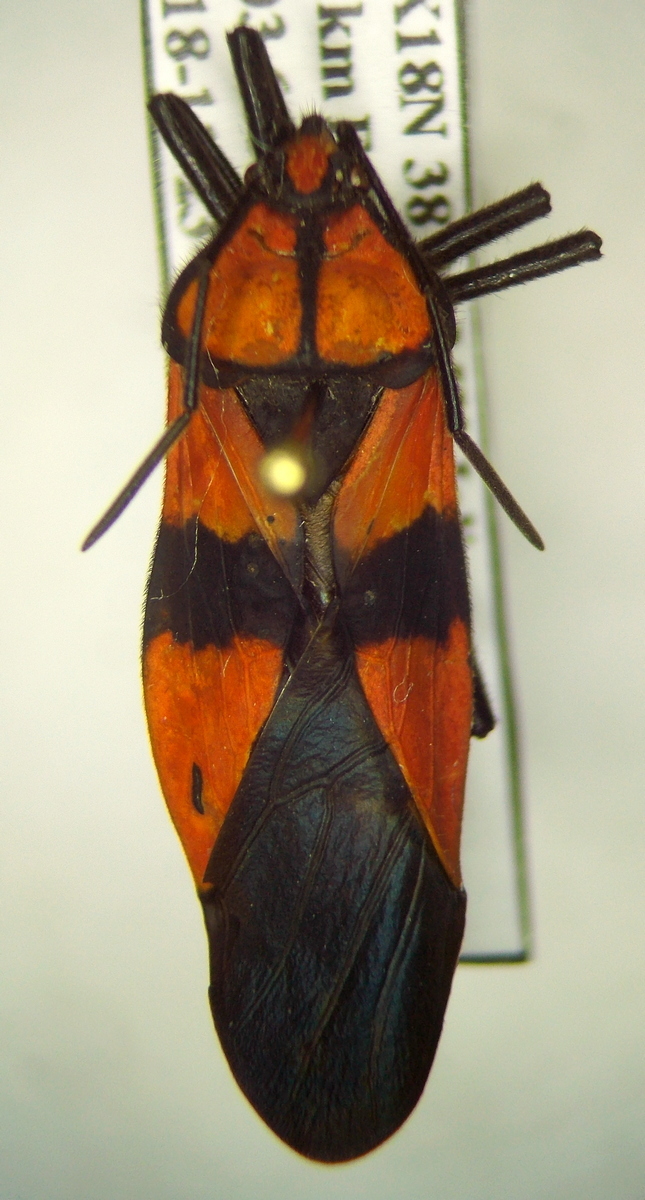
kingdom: Animalia
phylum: Arthropoda
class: Insecta
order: Hemiptera
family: Lygaeidae
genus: Oncopeltus
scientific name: Oncopeltus varicolor
